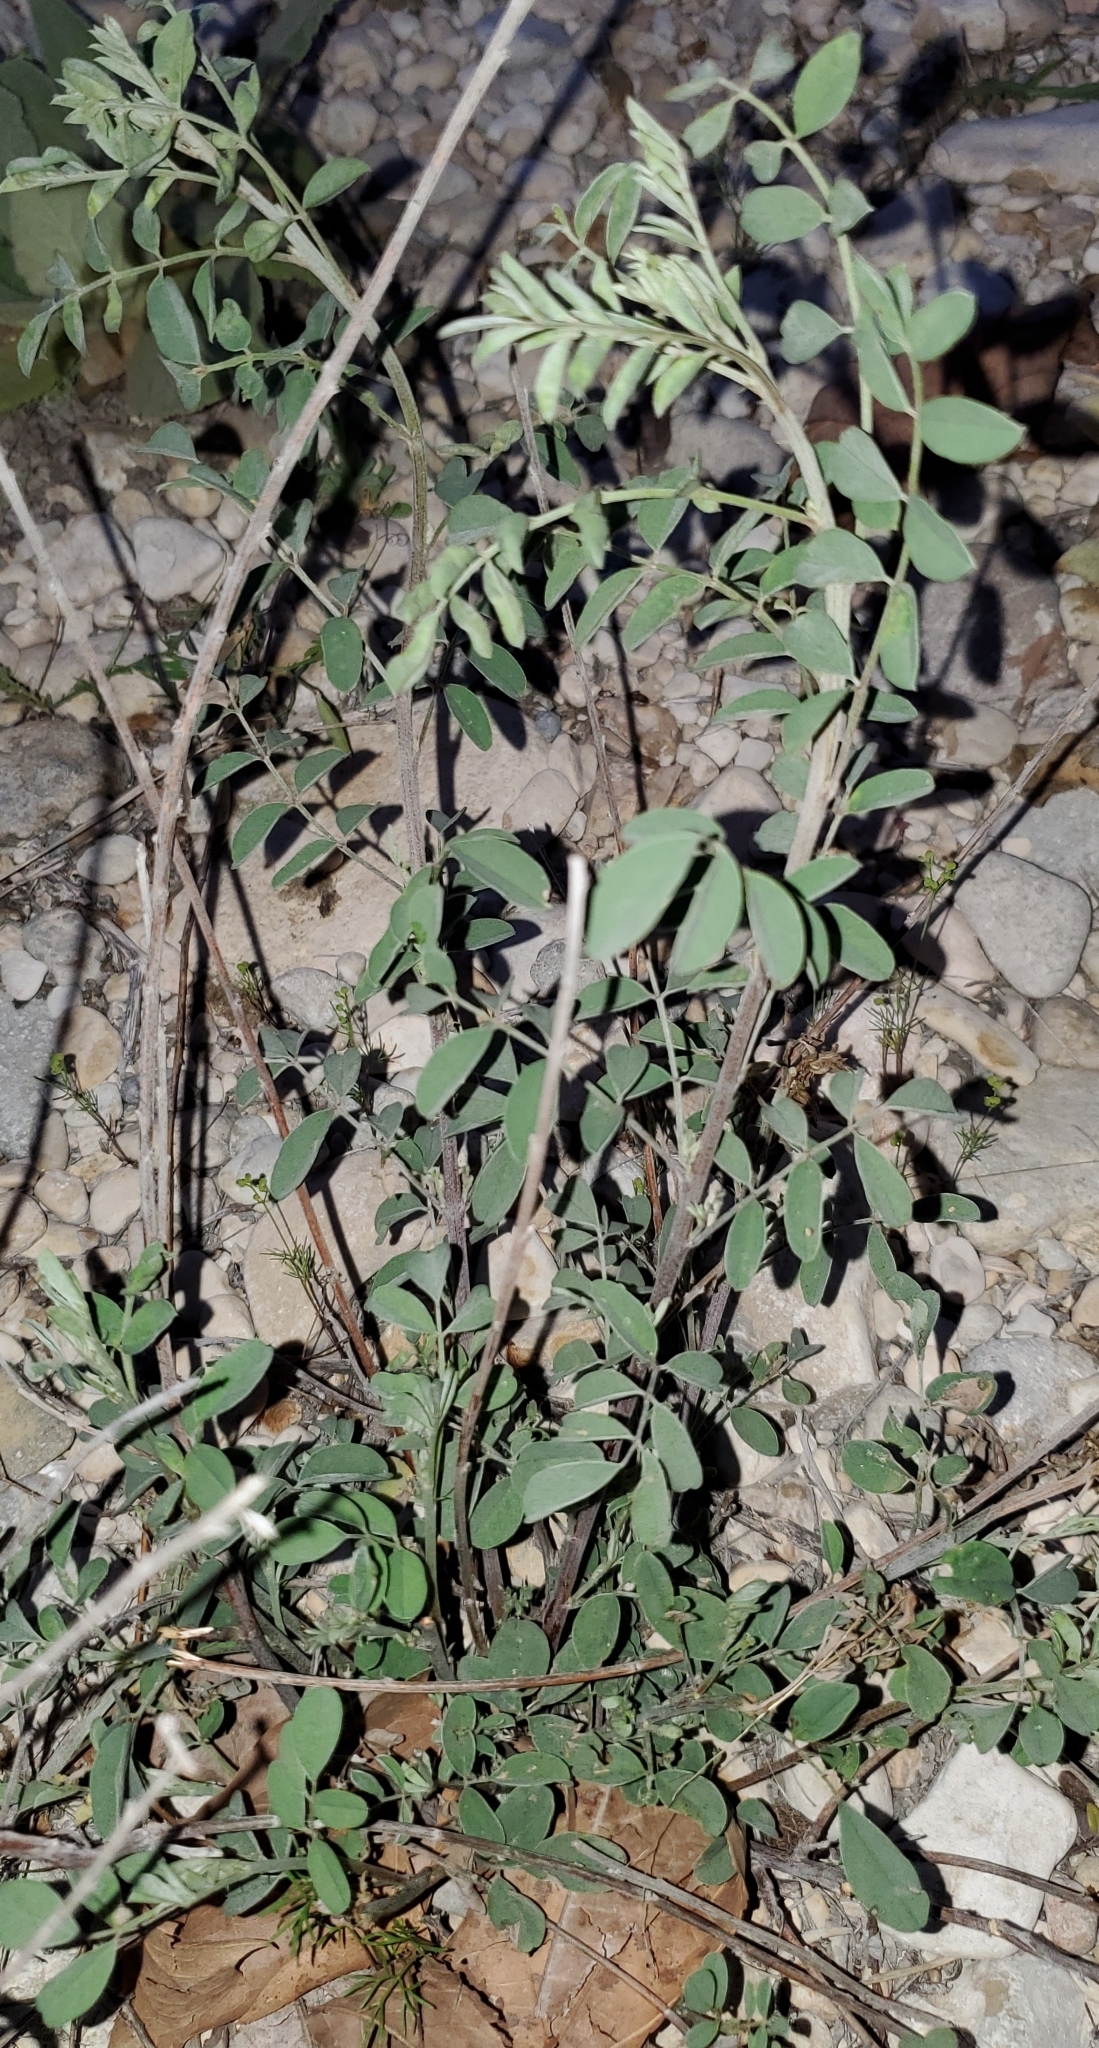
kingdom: Plantae
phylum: Tracheophyta
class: Magnoliopsida
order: Fabales
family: Fabaceae
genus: Indigofera
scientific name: Indigofera lindheimeriana
